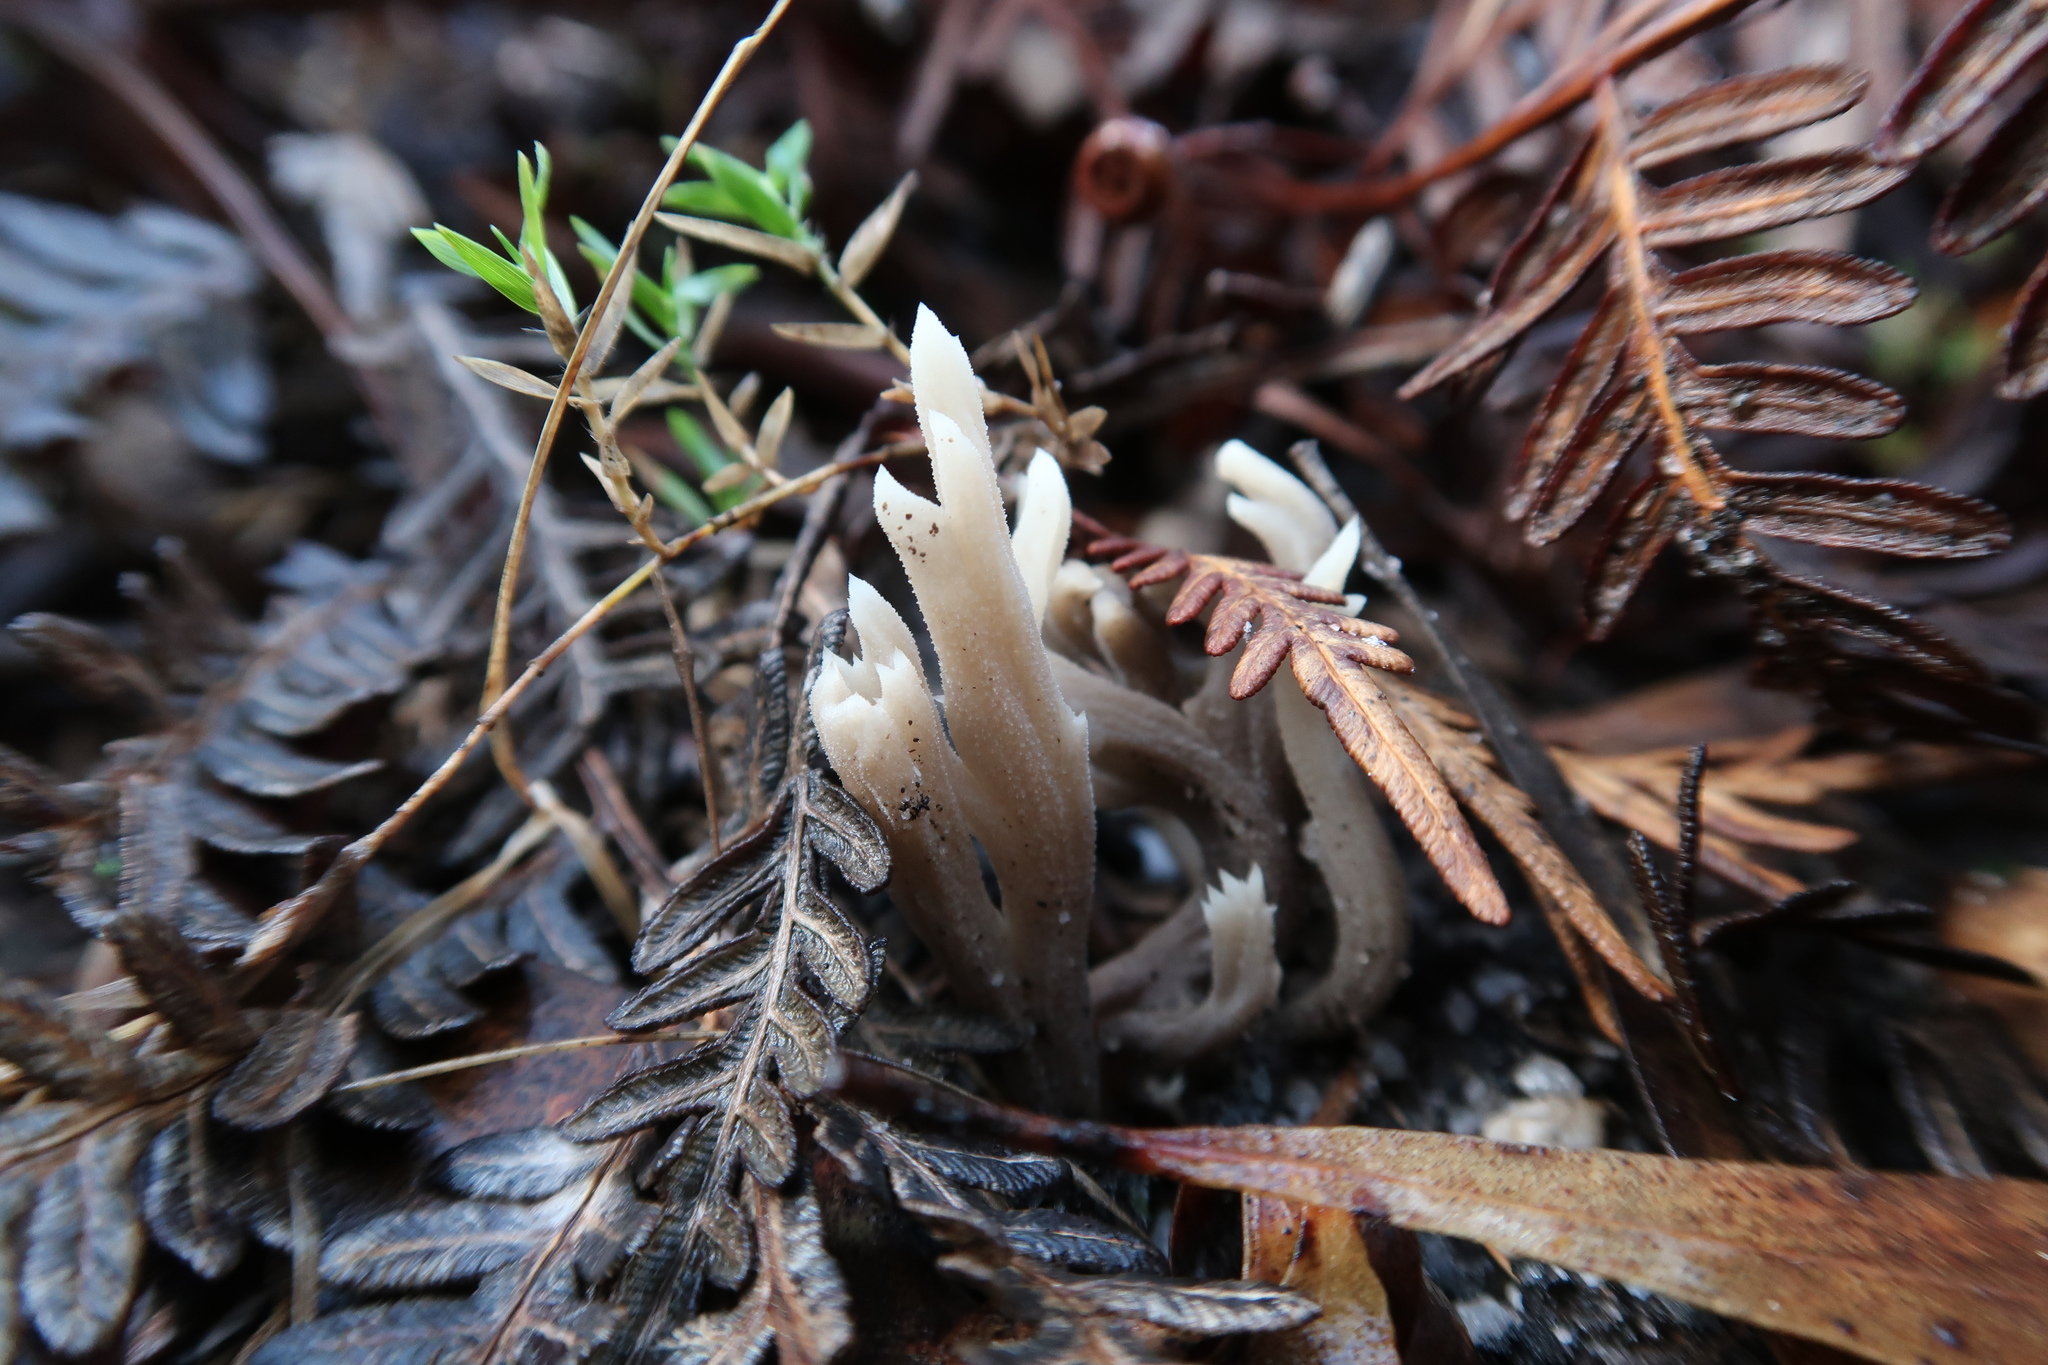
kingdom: Fungi
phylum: Basidiomycota
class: Agaricomycetes
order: Cantharellales
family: Hydnaceae
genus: Clavulina
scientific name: Clavulina subrugosa
